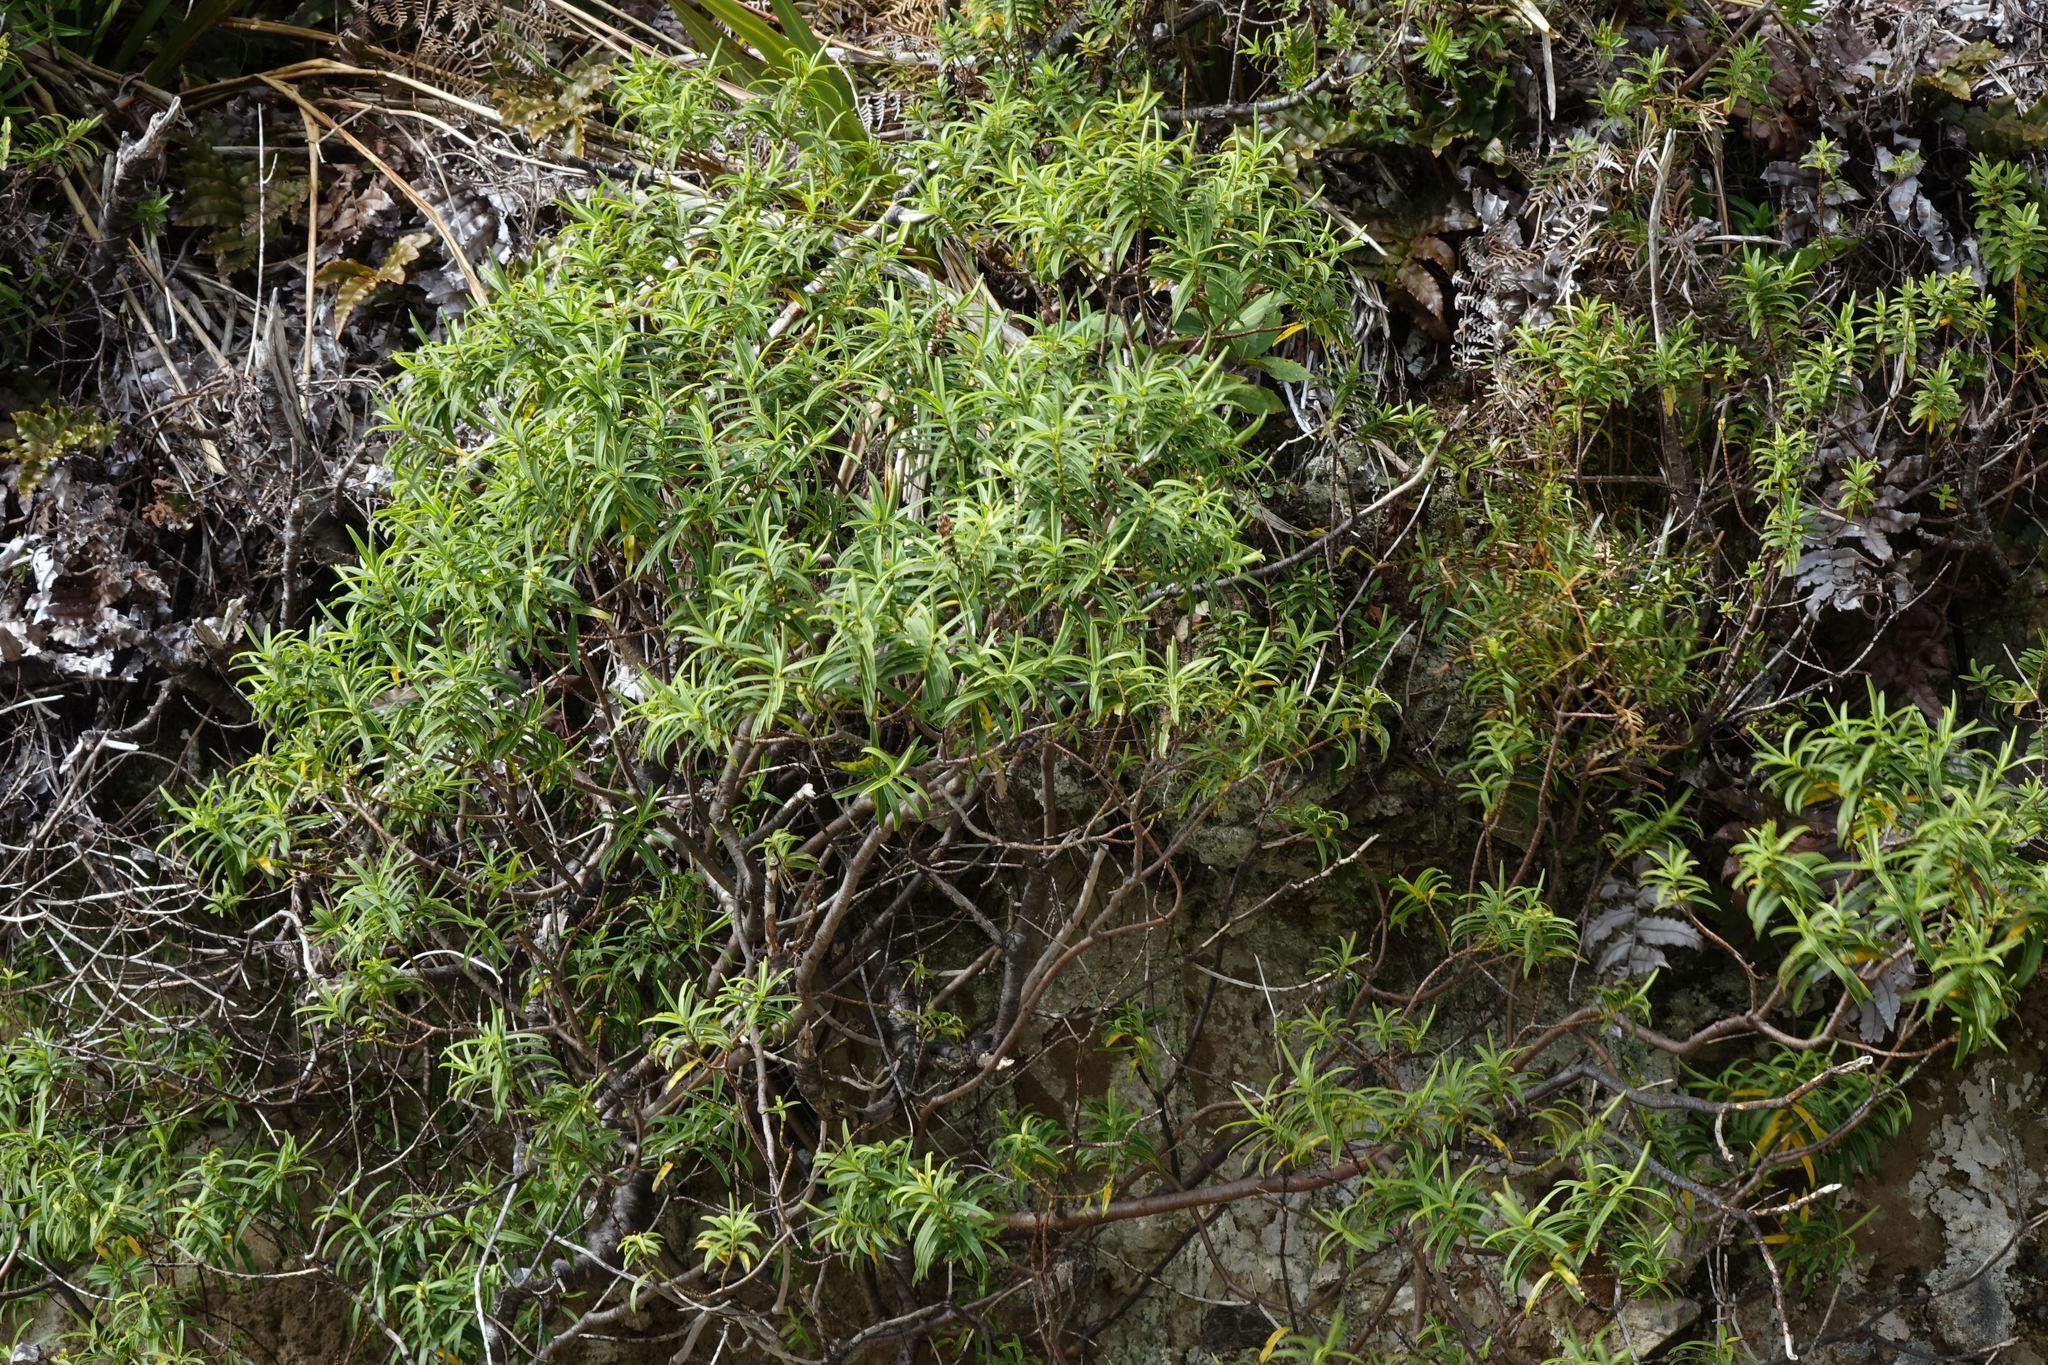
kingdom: Plantae
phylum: Tracheophyta
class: Magnoliopsida
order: Lamiales
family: Plantaginaceae
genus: Veronica
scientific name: Veronica strictissima
